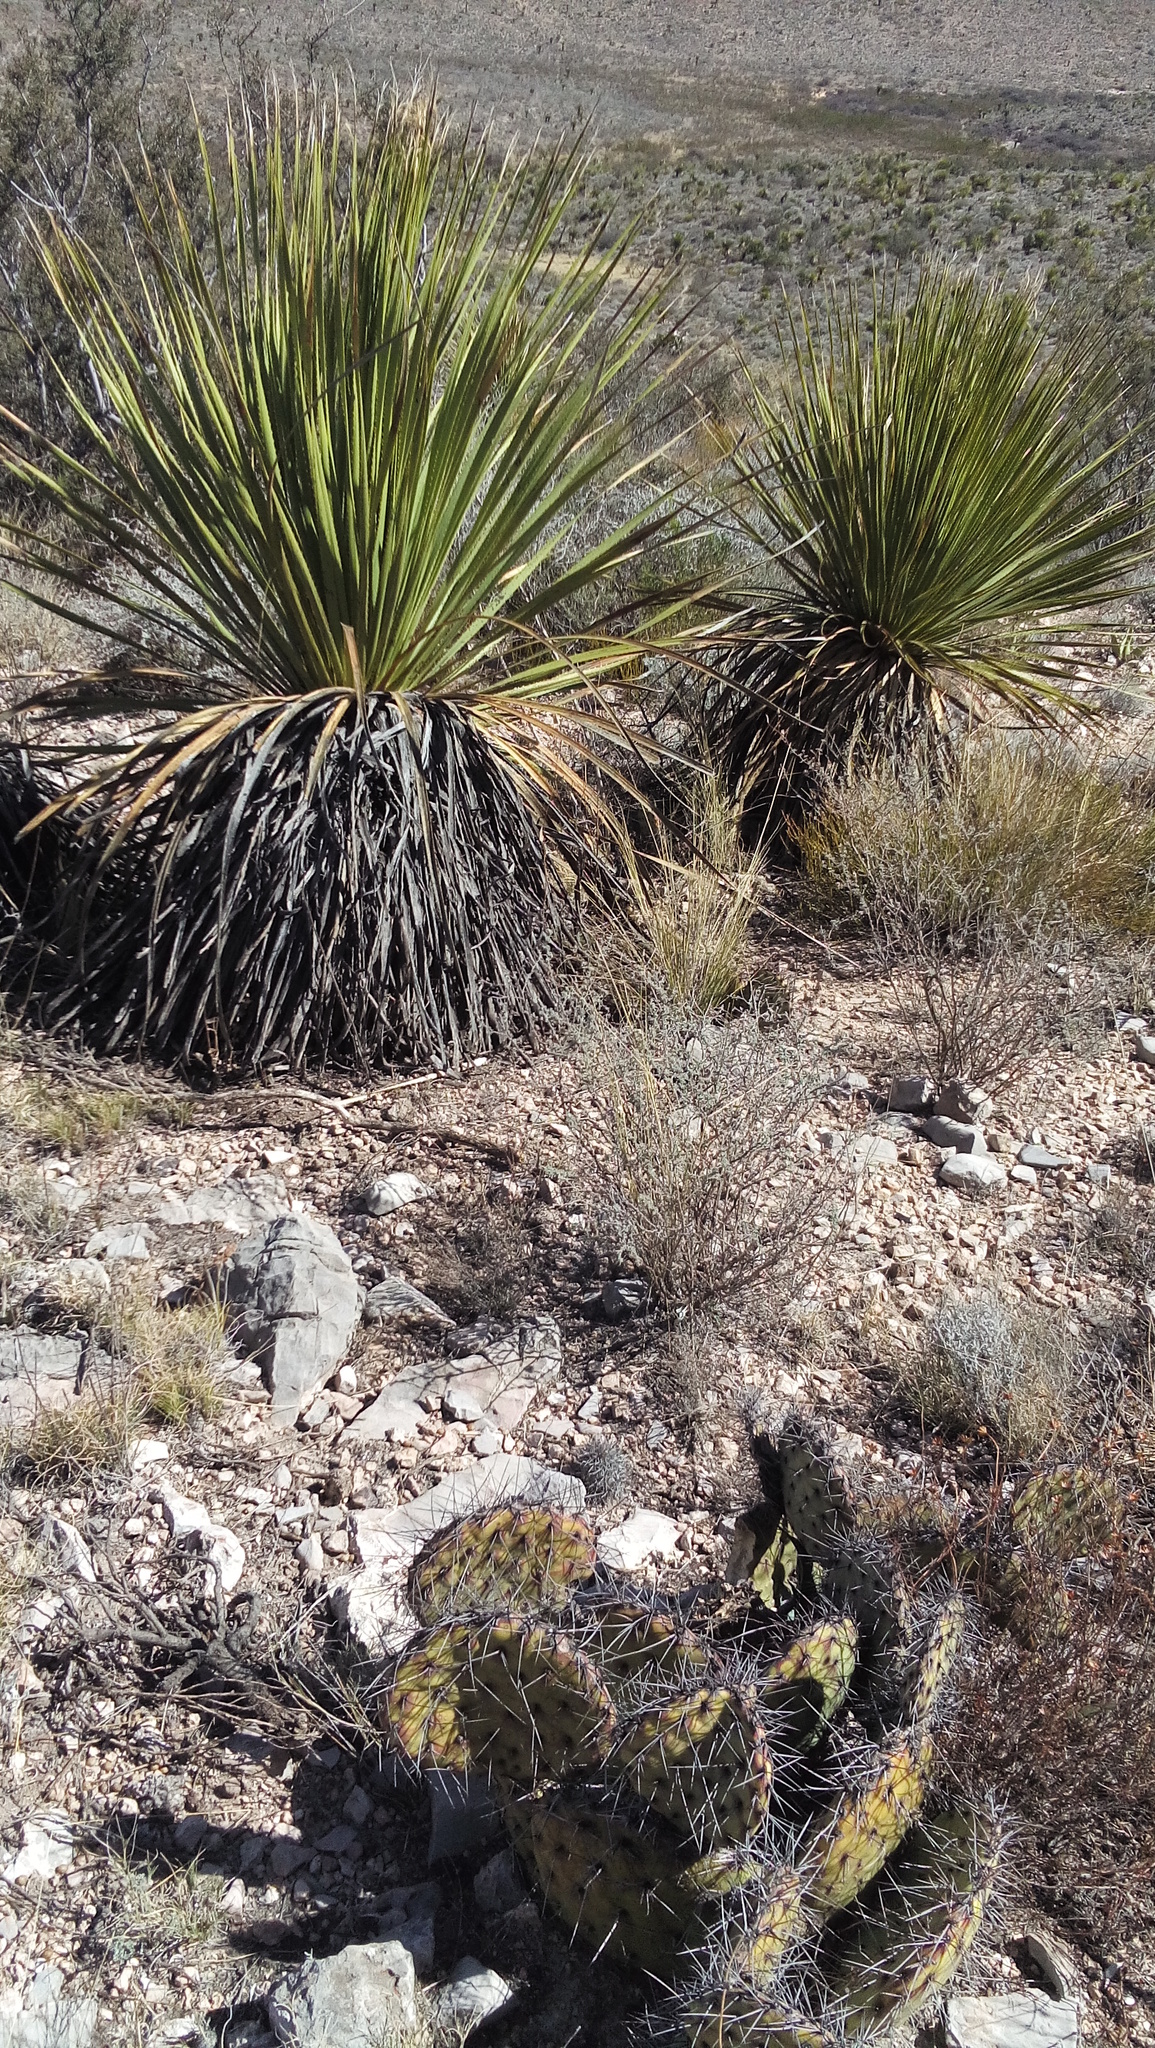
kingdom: Plantae
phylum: Tracheophyta
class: Liliopsida
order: Asparagales
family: Asparagaceae
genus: Dasylirion
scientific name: Dasylirion acrotrichum
